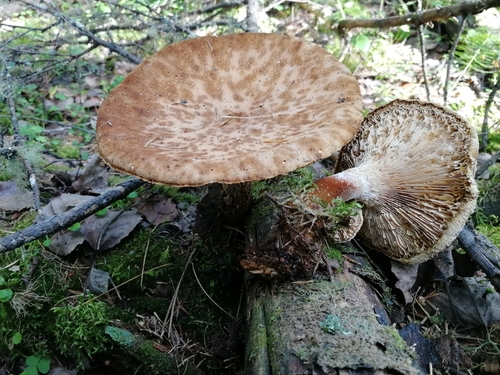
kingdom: Fungi
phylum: Basidiomycota
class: Agaricomycetes
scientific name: Agaricomycetes
